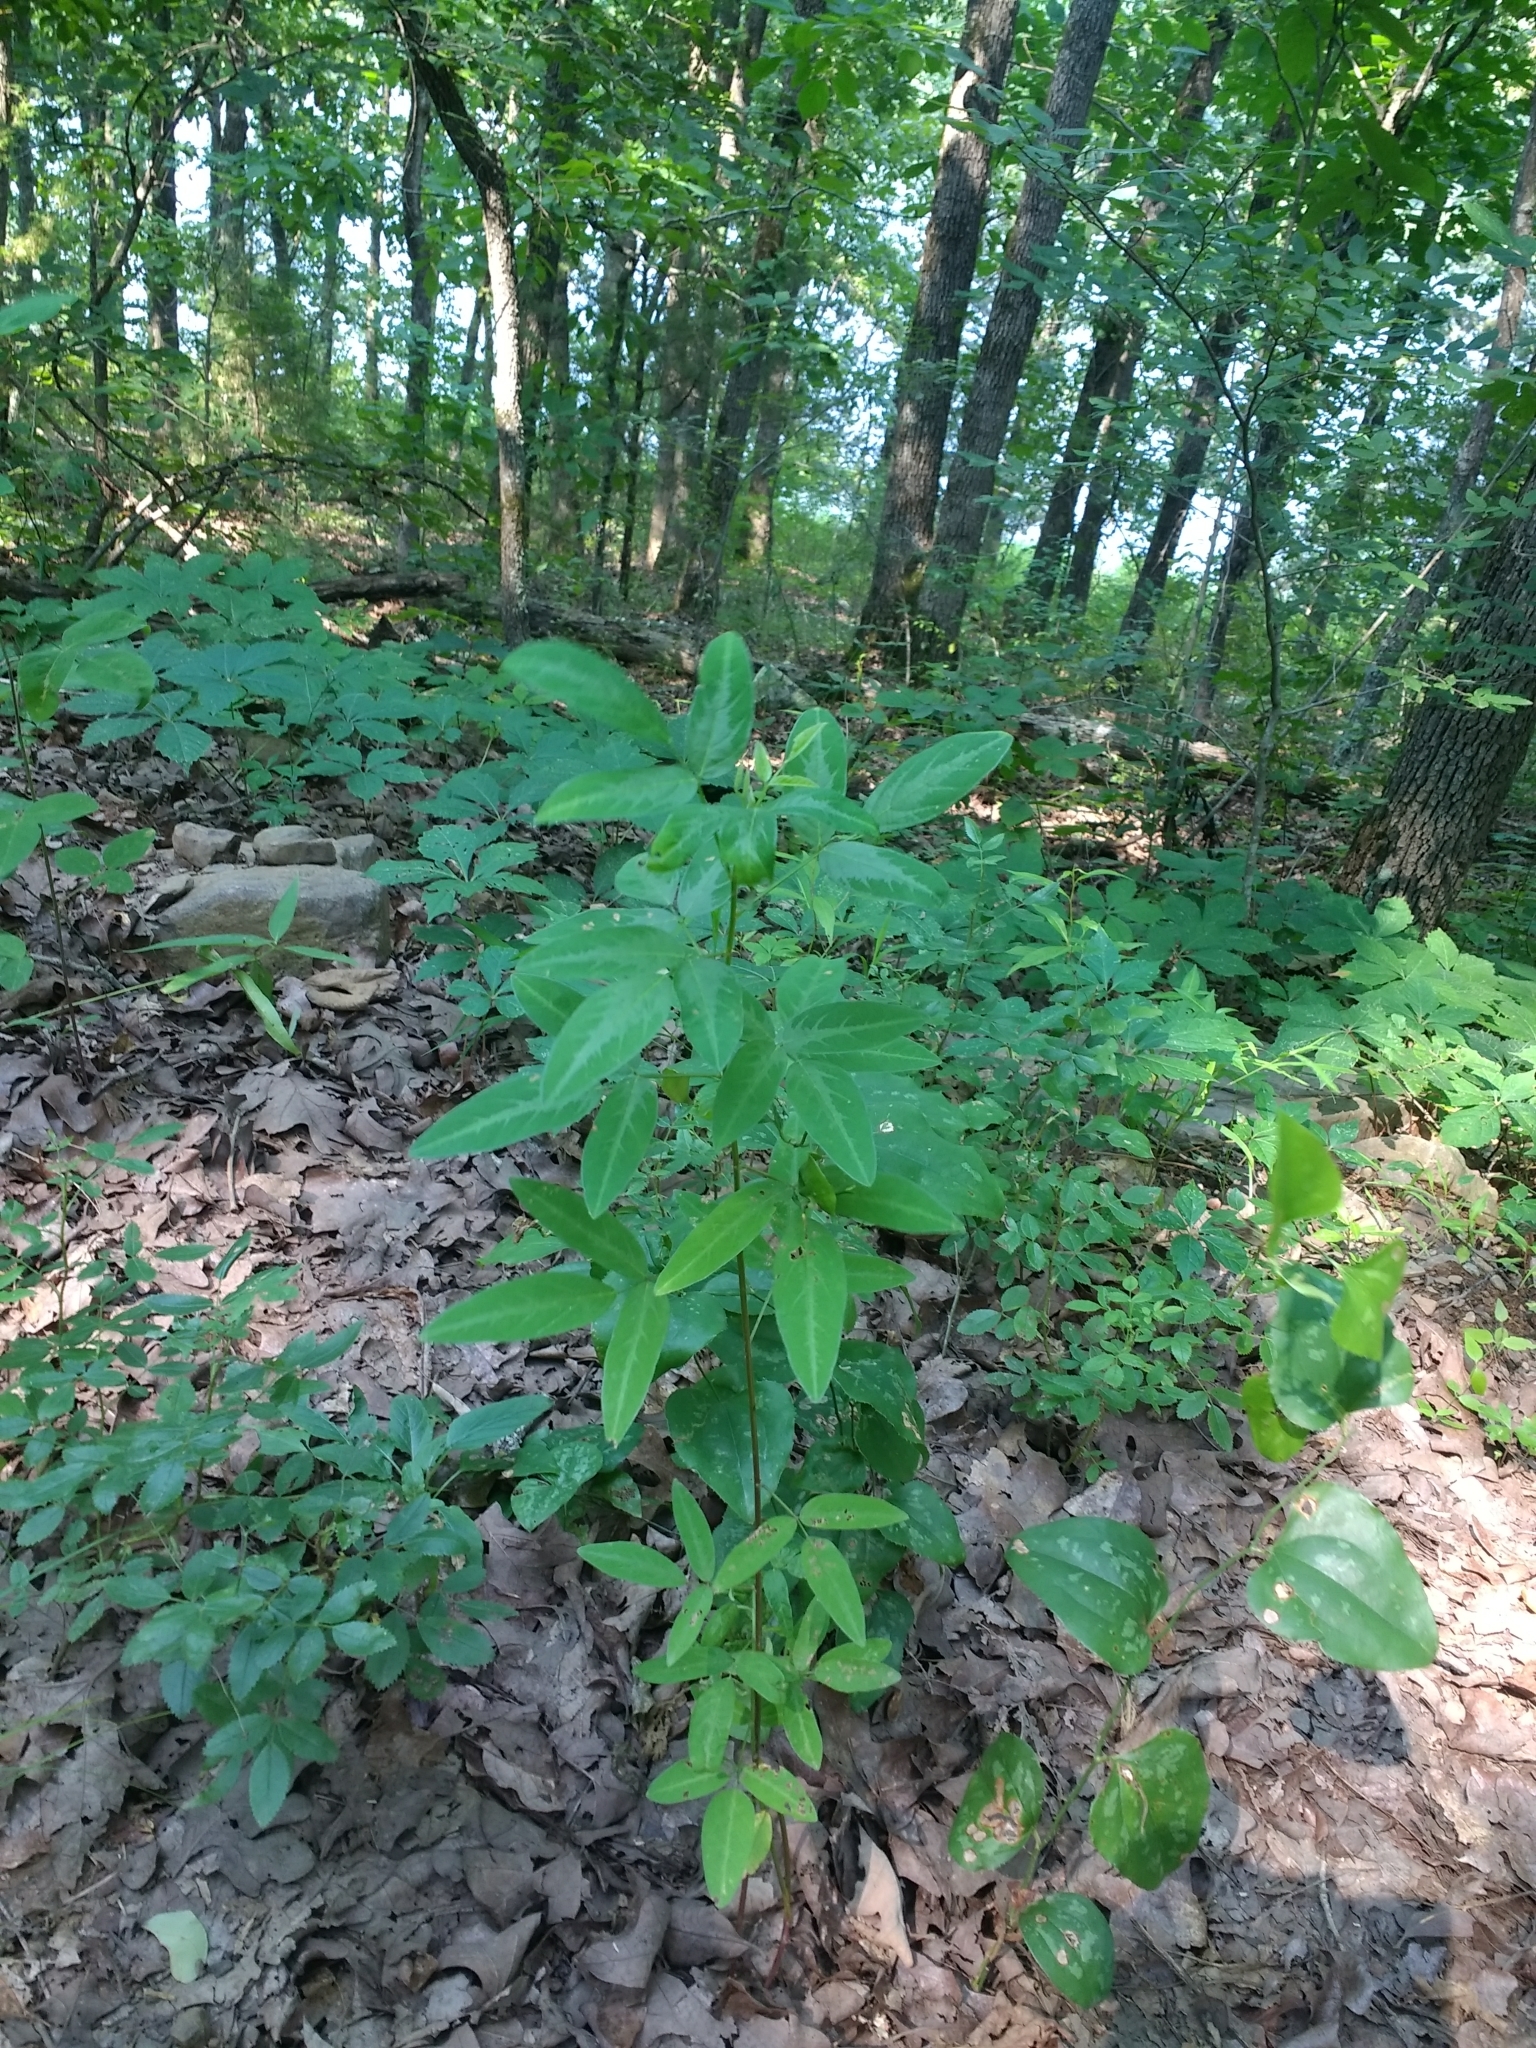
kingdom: Plantae
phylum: Tracheophyta
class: Magnoliopsida
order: Fabales
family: Fabaceae
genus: Desmodium
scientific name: Desmodium paniculatum
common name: Panicled tick-clover
